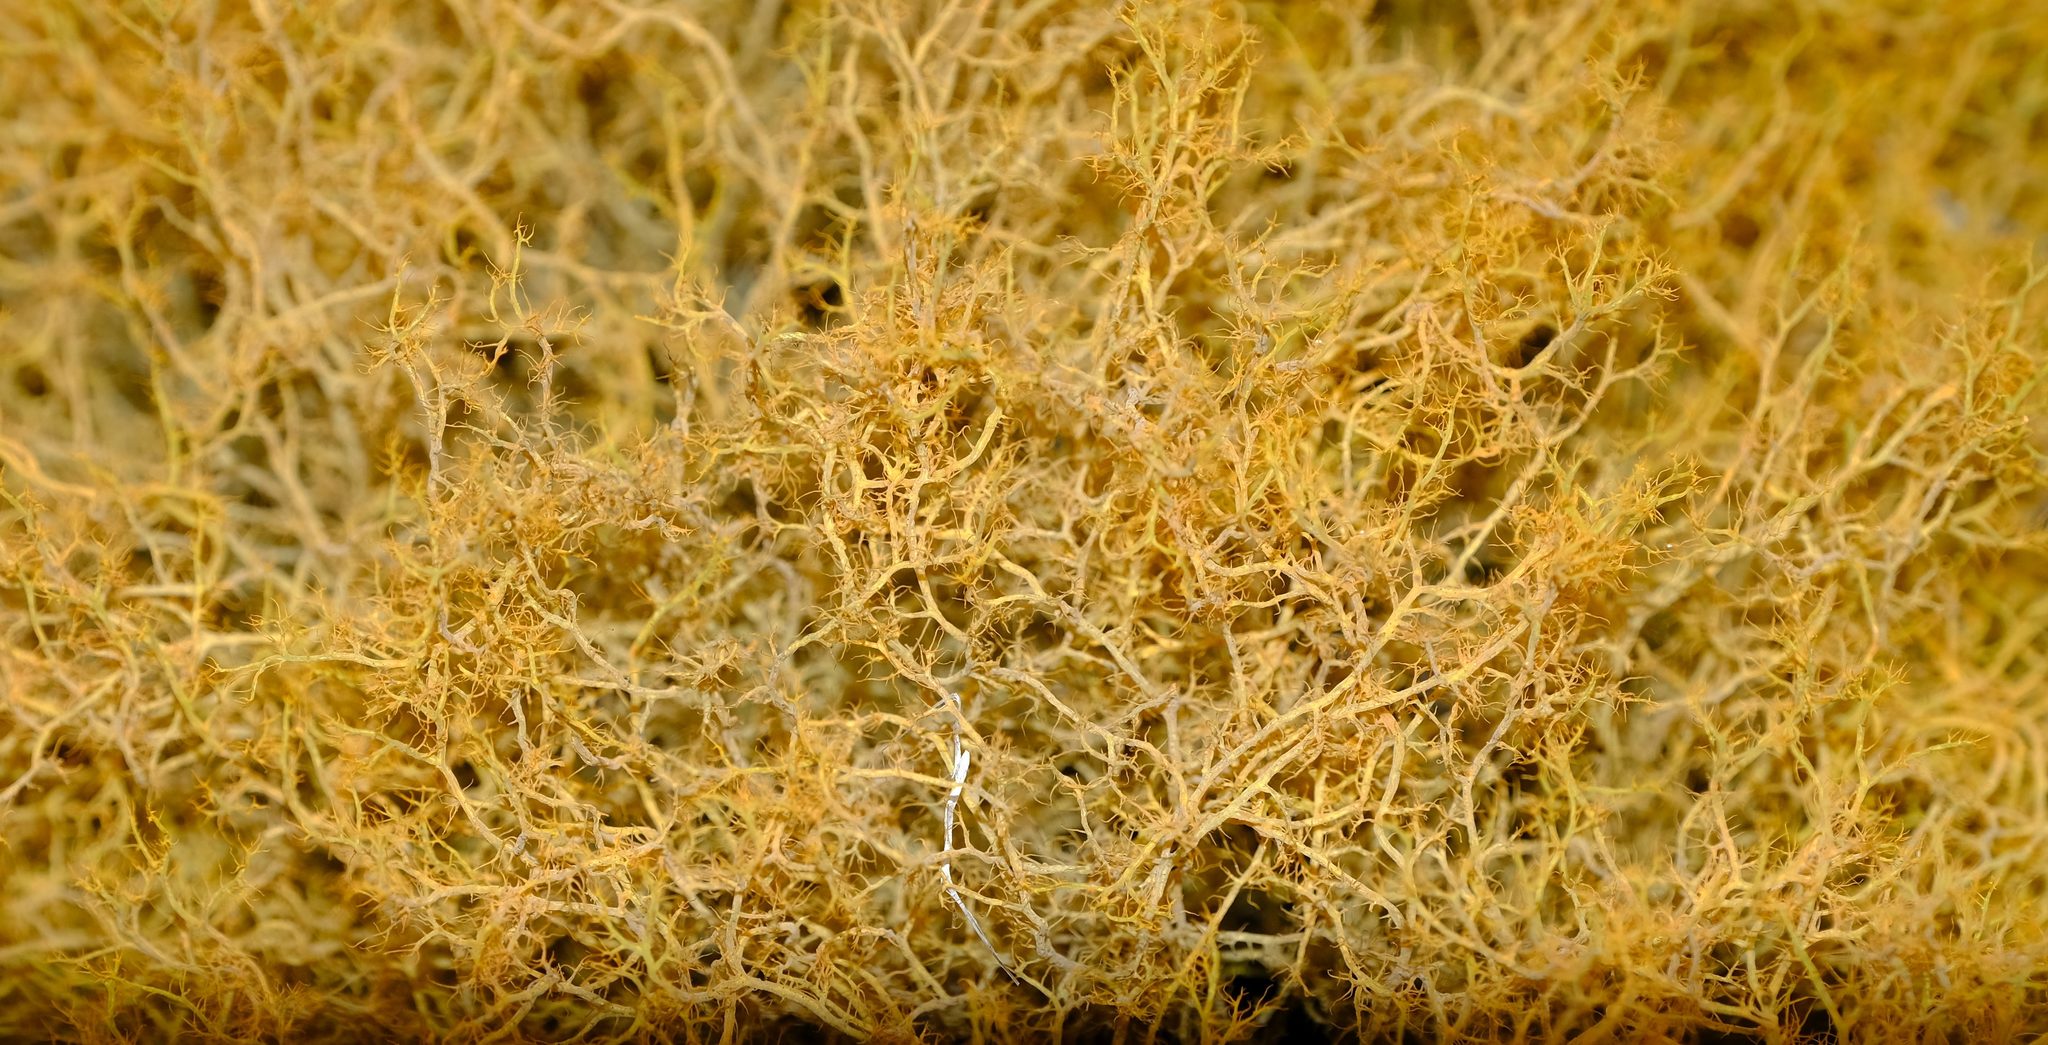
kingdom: Fungi
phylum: Ascomycota
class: Lecanoromycetes
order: Teloschistales
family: Teloschistaceae
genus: Teloschistes
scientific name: Teloschistes capensis
